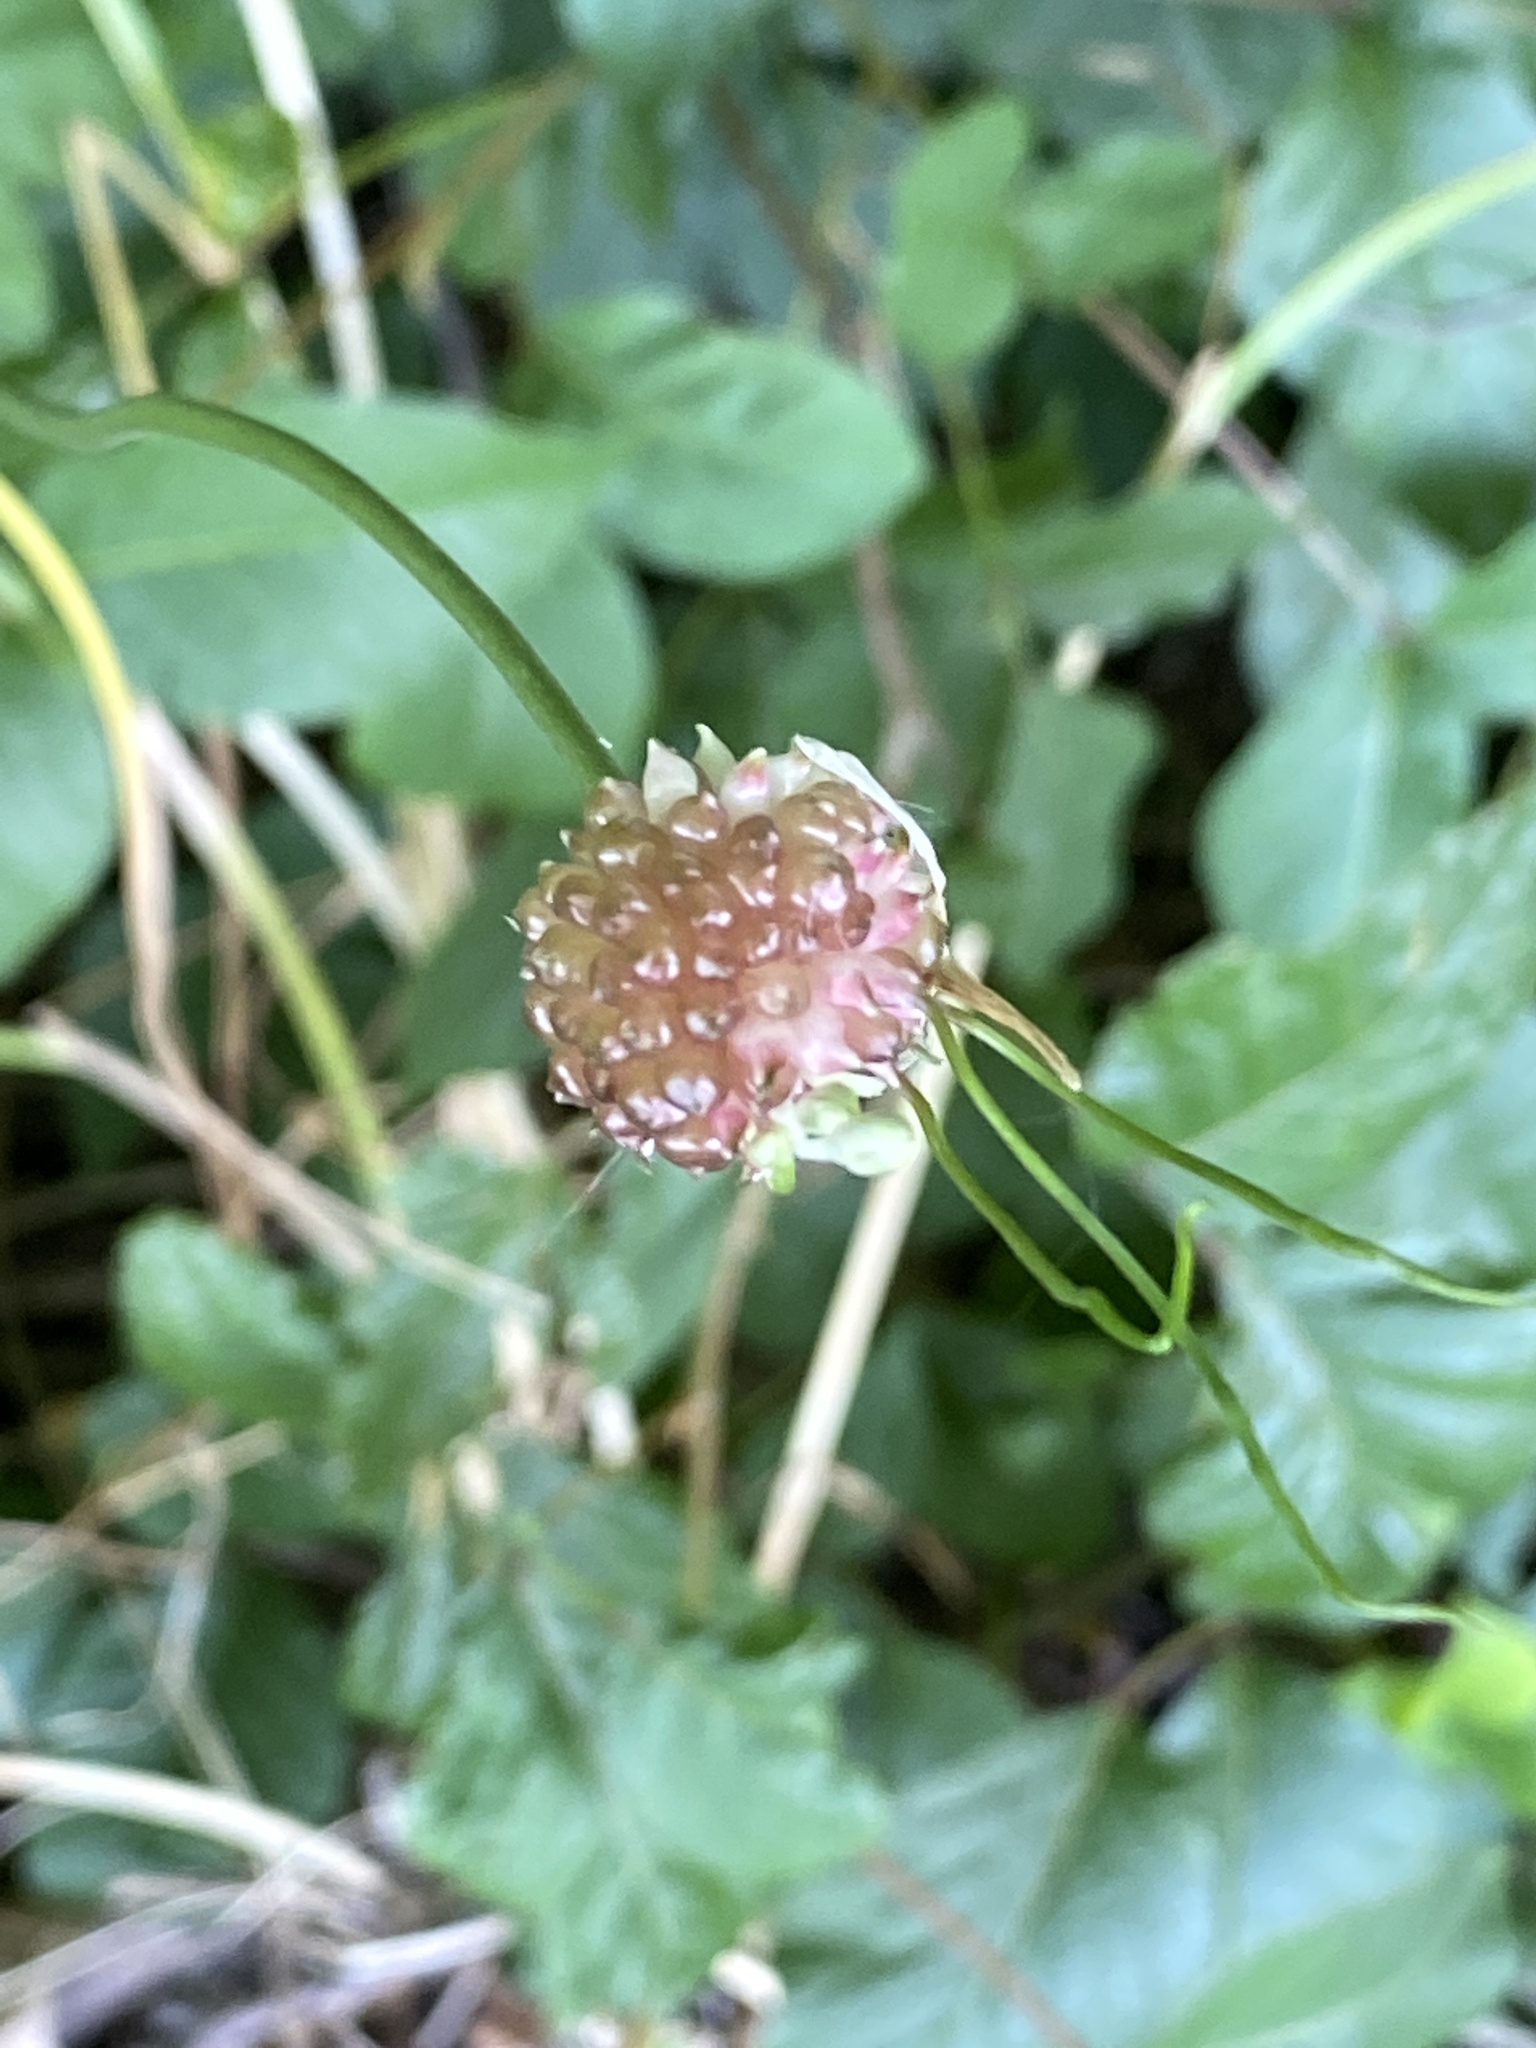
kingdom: Plantae
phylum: Tracheophyta
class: Liliopsida
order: Asparagales
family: Amaryllidaceae
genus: Allium
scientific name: Allium vineale
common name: Crow garlic
